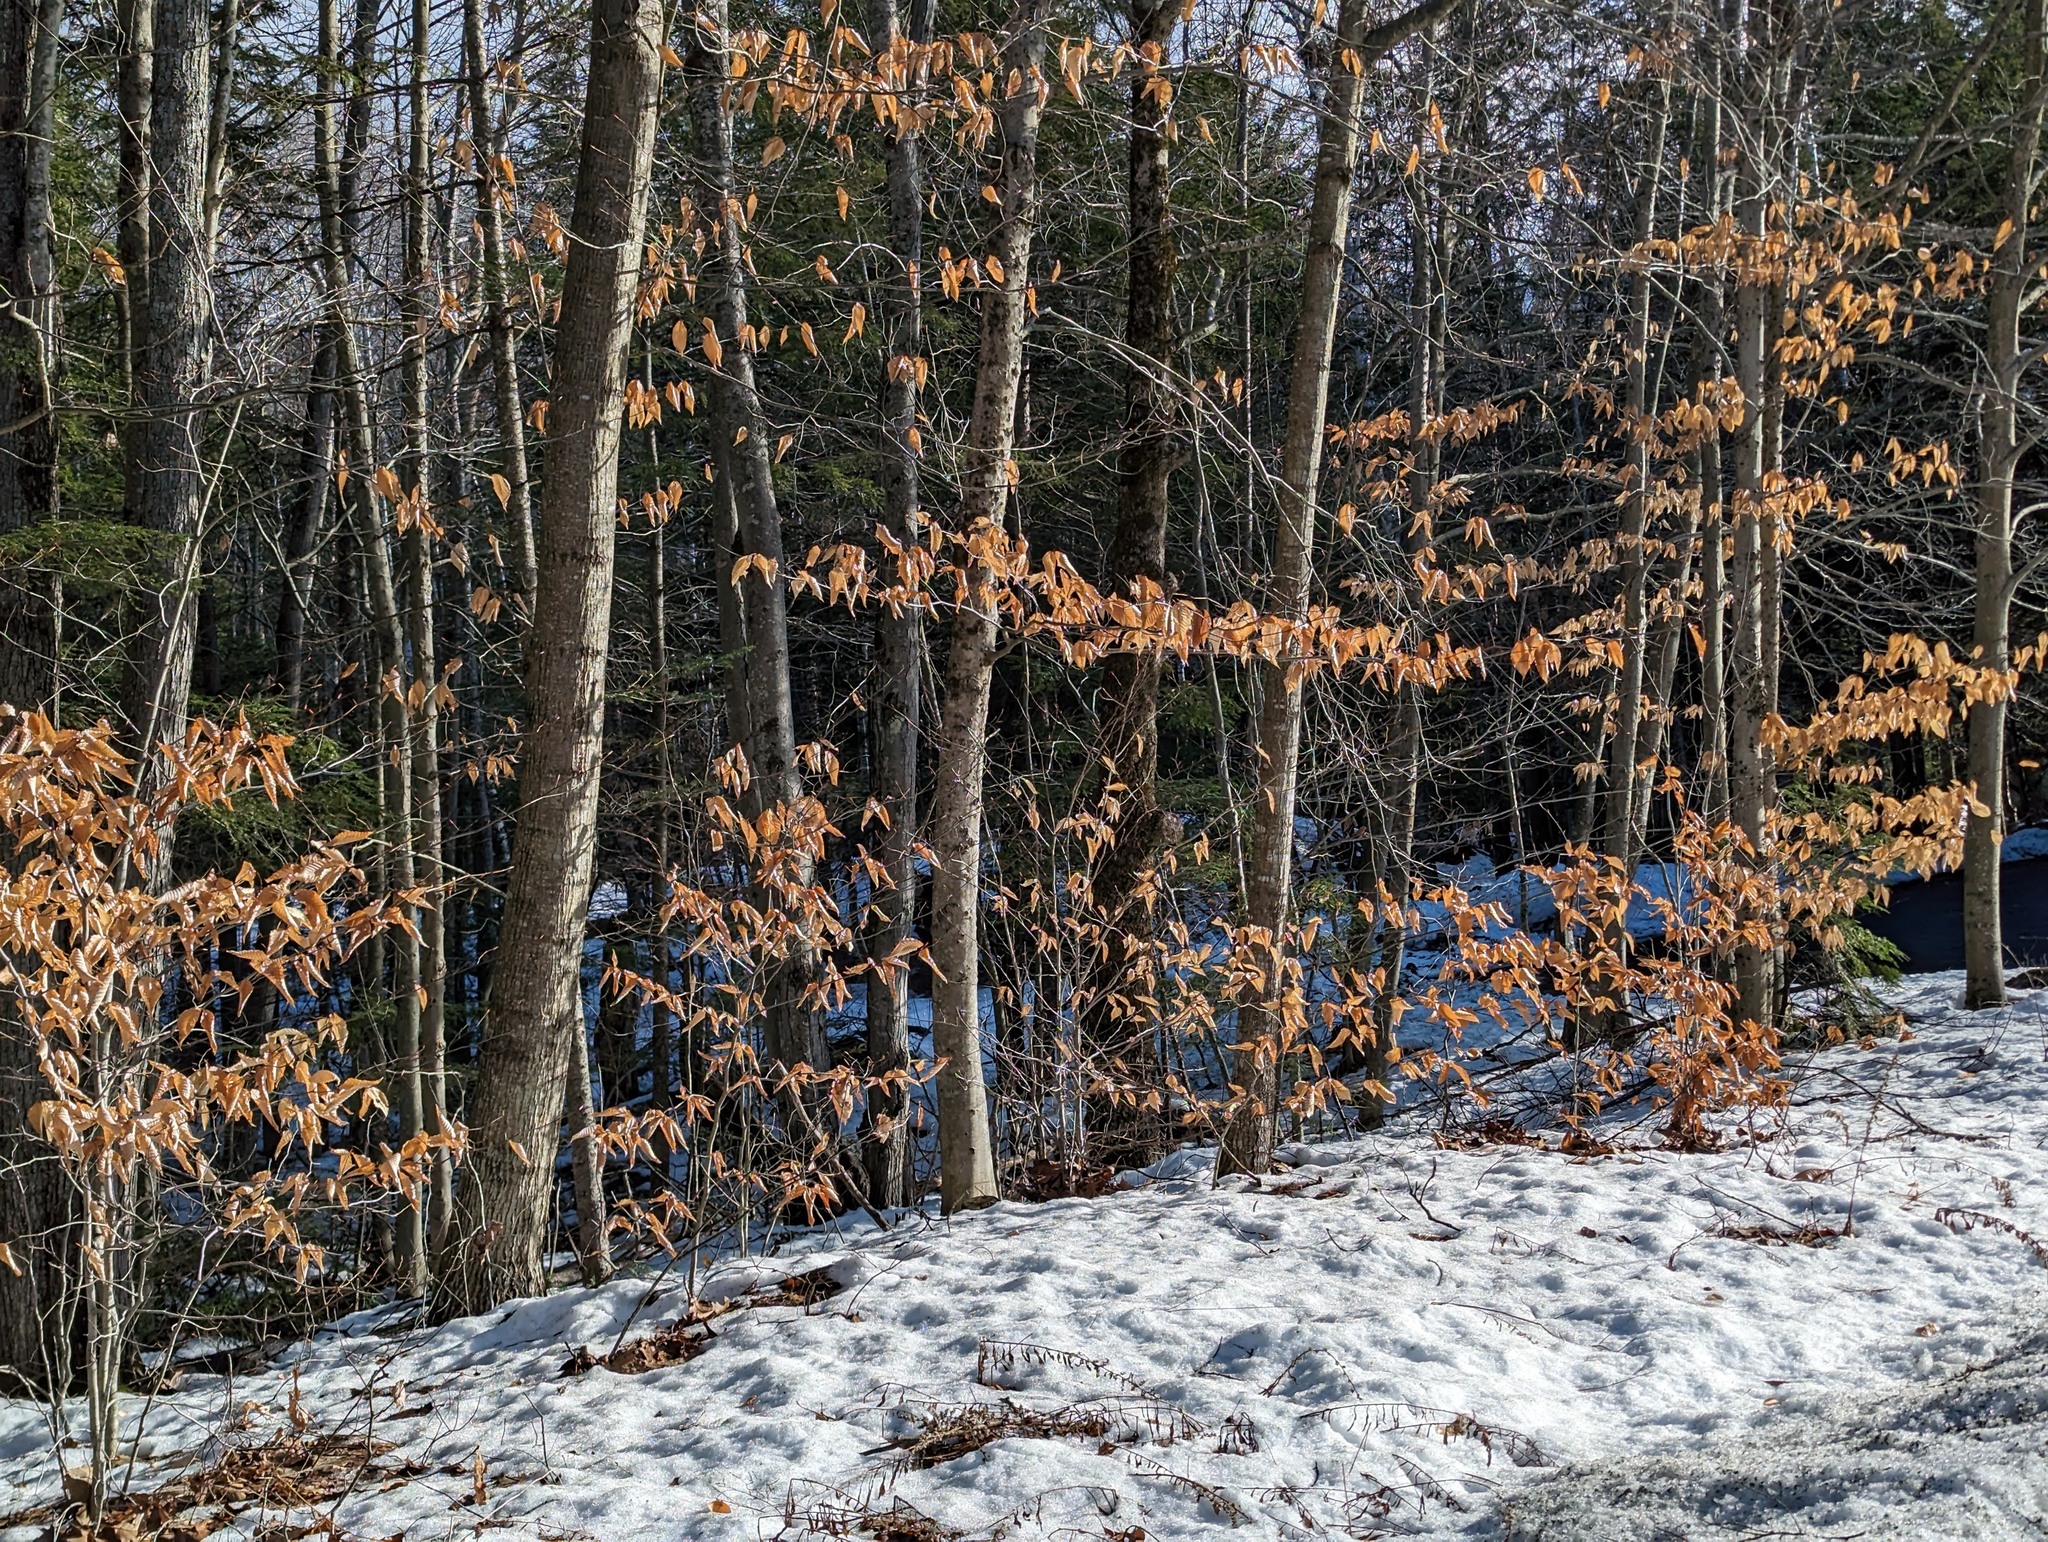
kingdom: Plantae
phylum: Tracheophyta
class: Magnoliopsida
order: Fagales
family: Fagaceae
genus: Fagus
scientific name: Fagus grandifolia
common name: American beech
